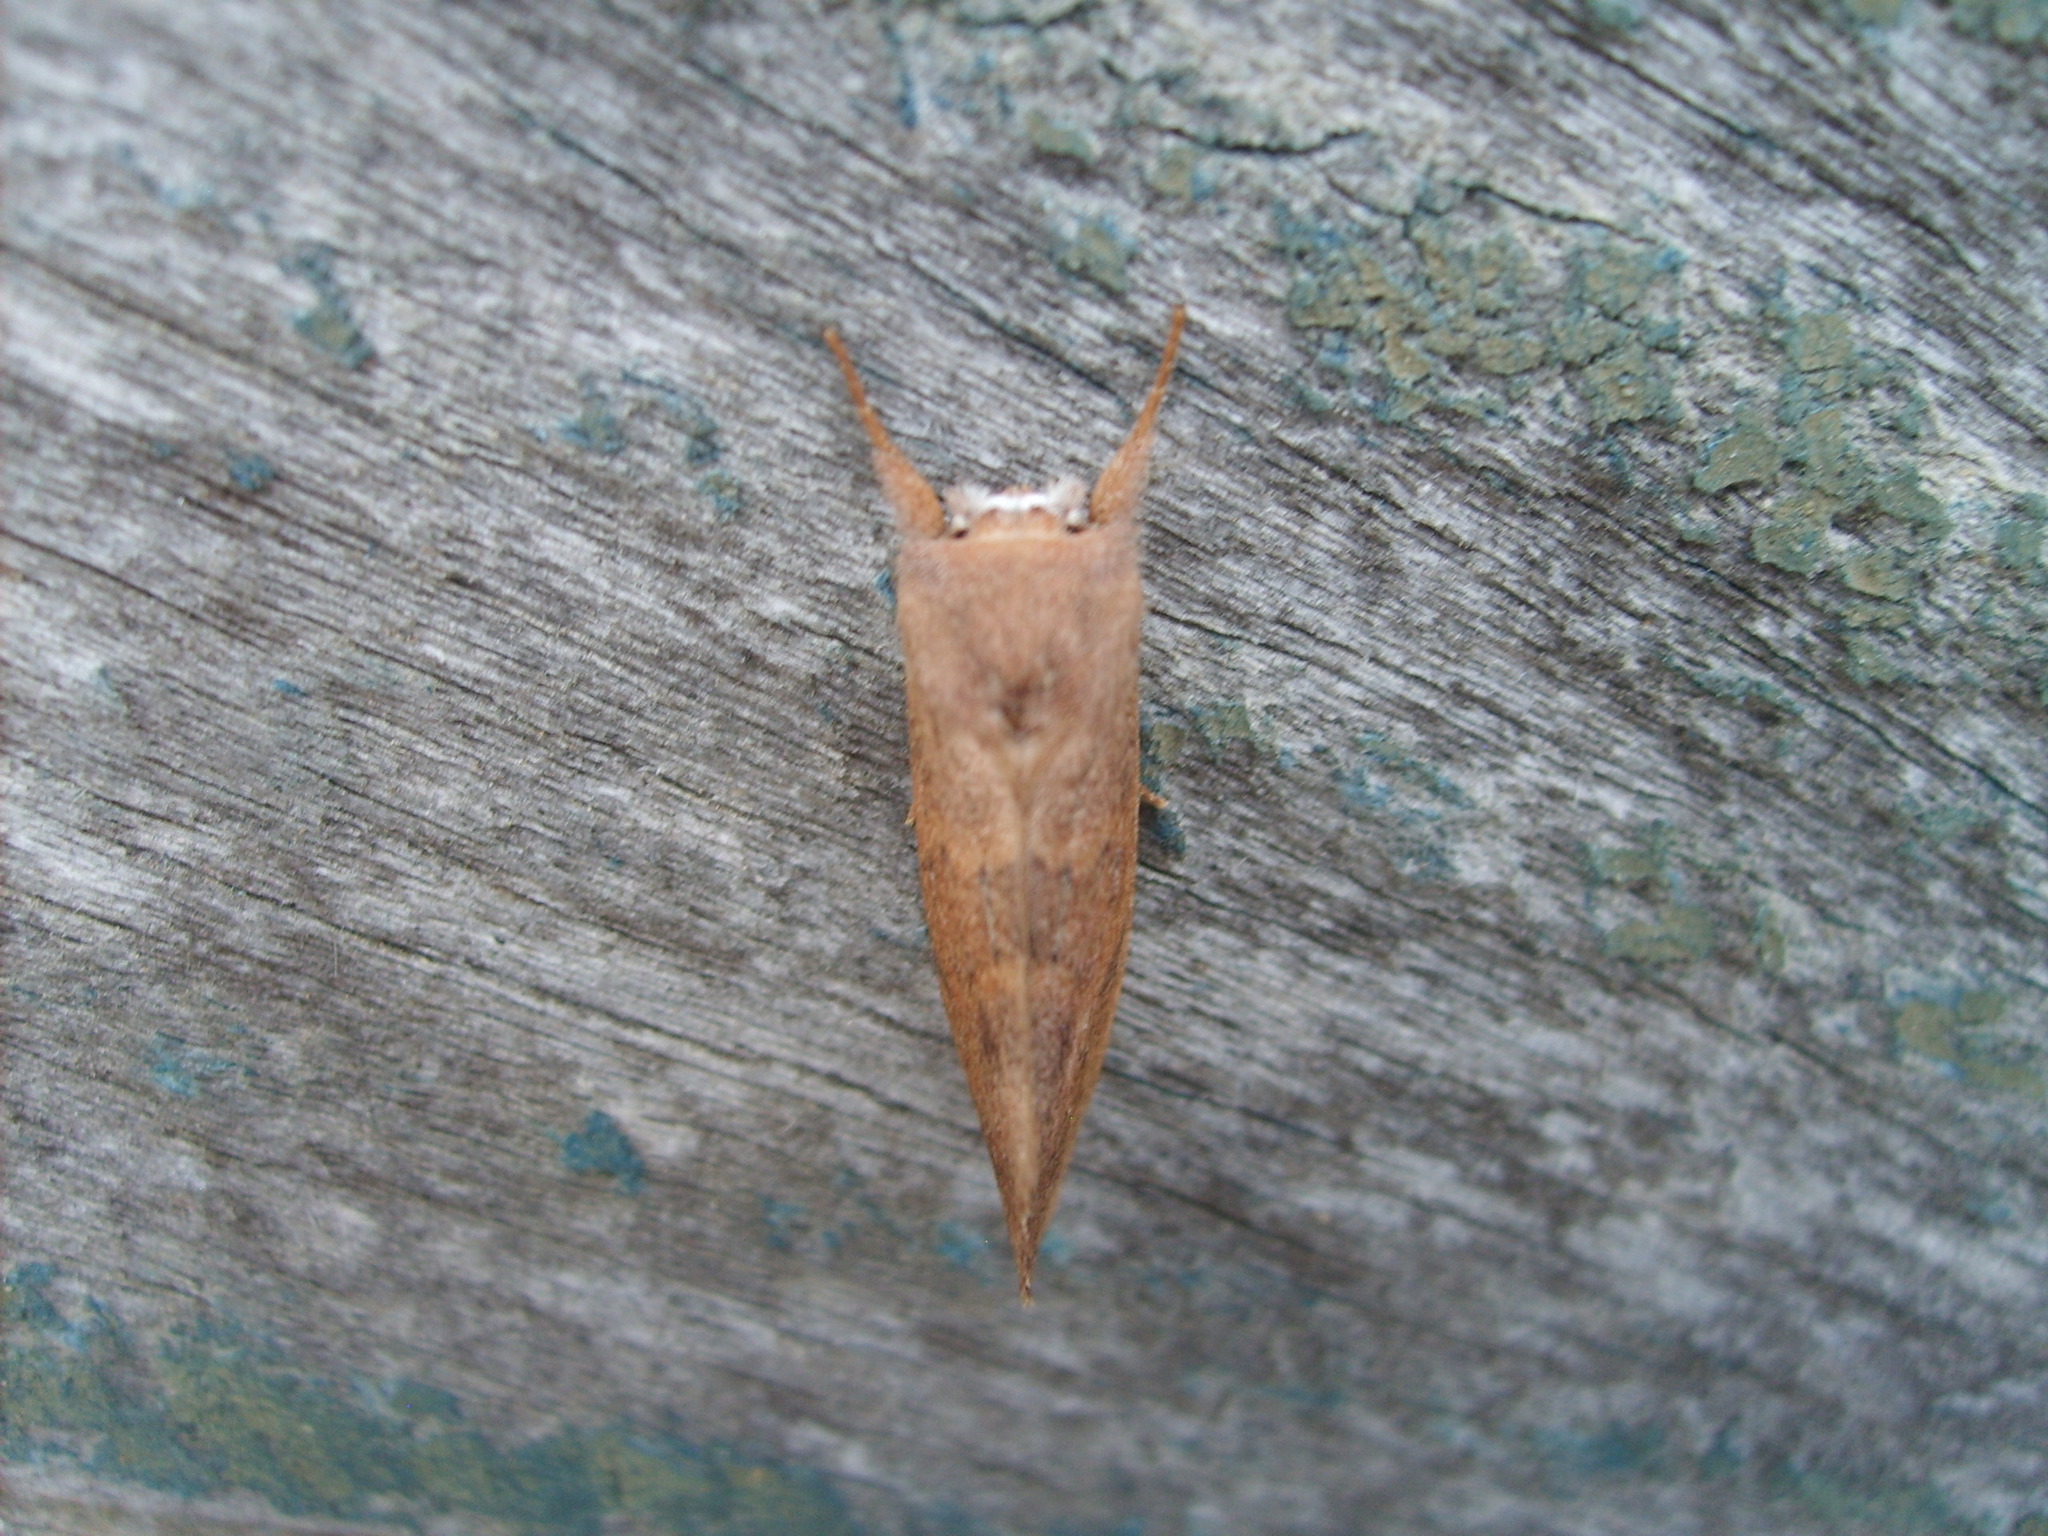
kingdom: Animalia
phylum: Arthropoda
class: Insecta
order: Lepidoptera
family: Notodontidae
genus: Hemiceras
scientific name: Hemiceras
